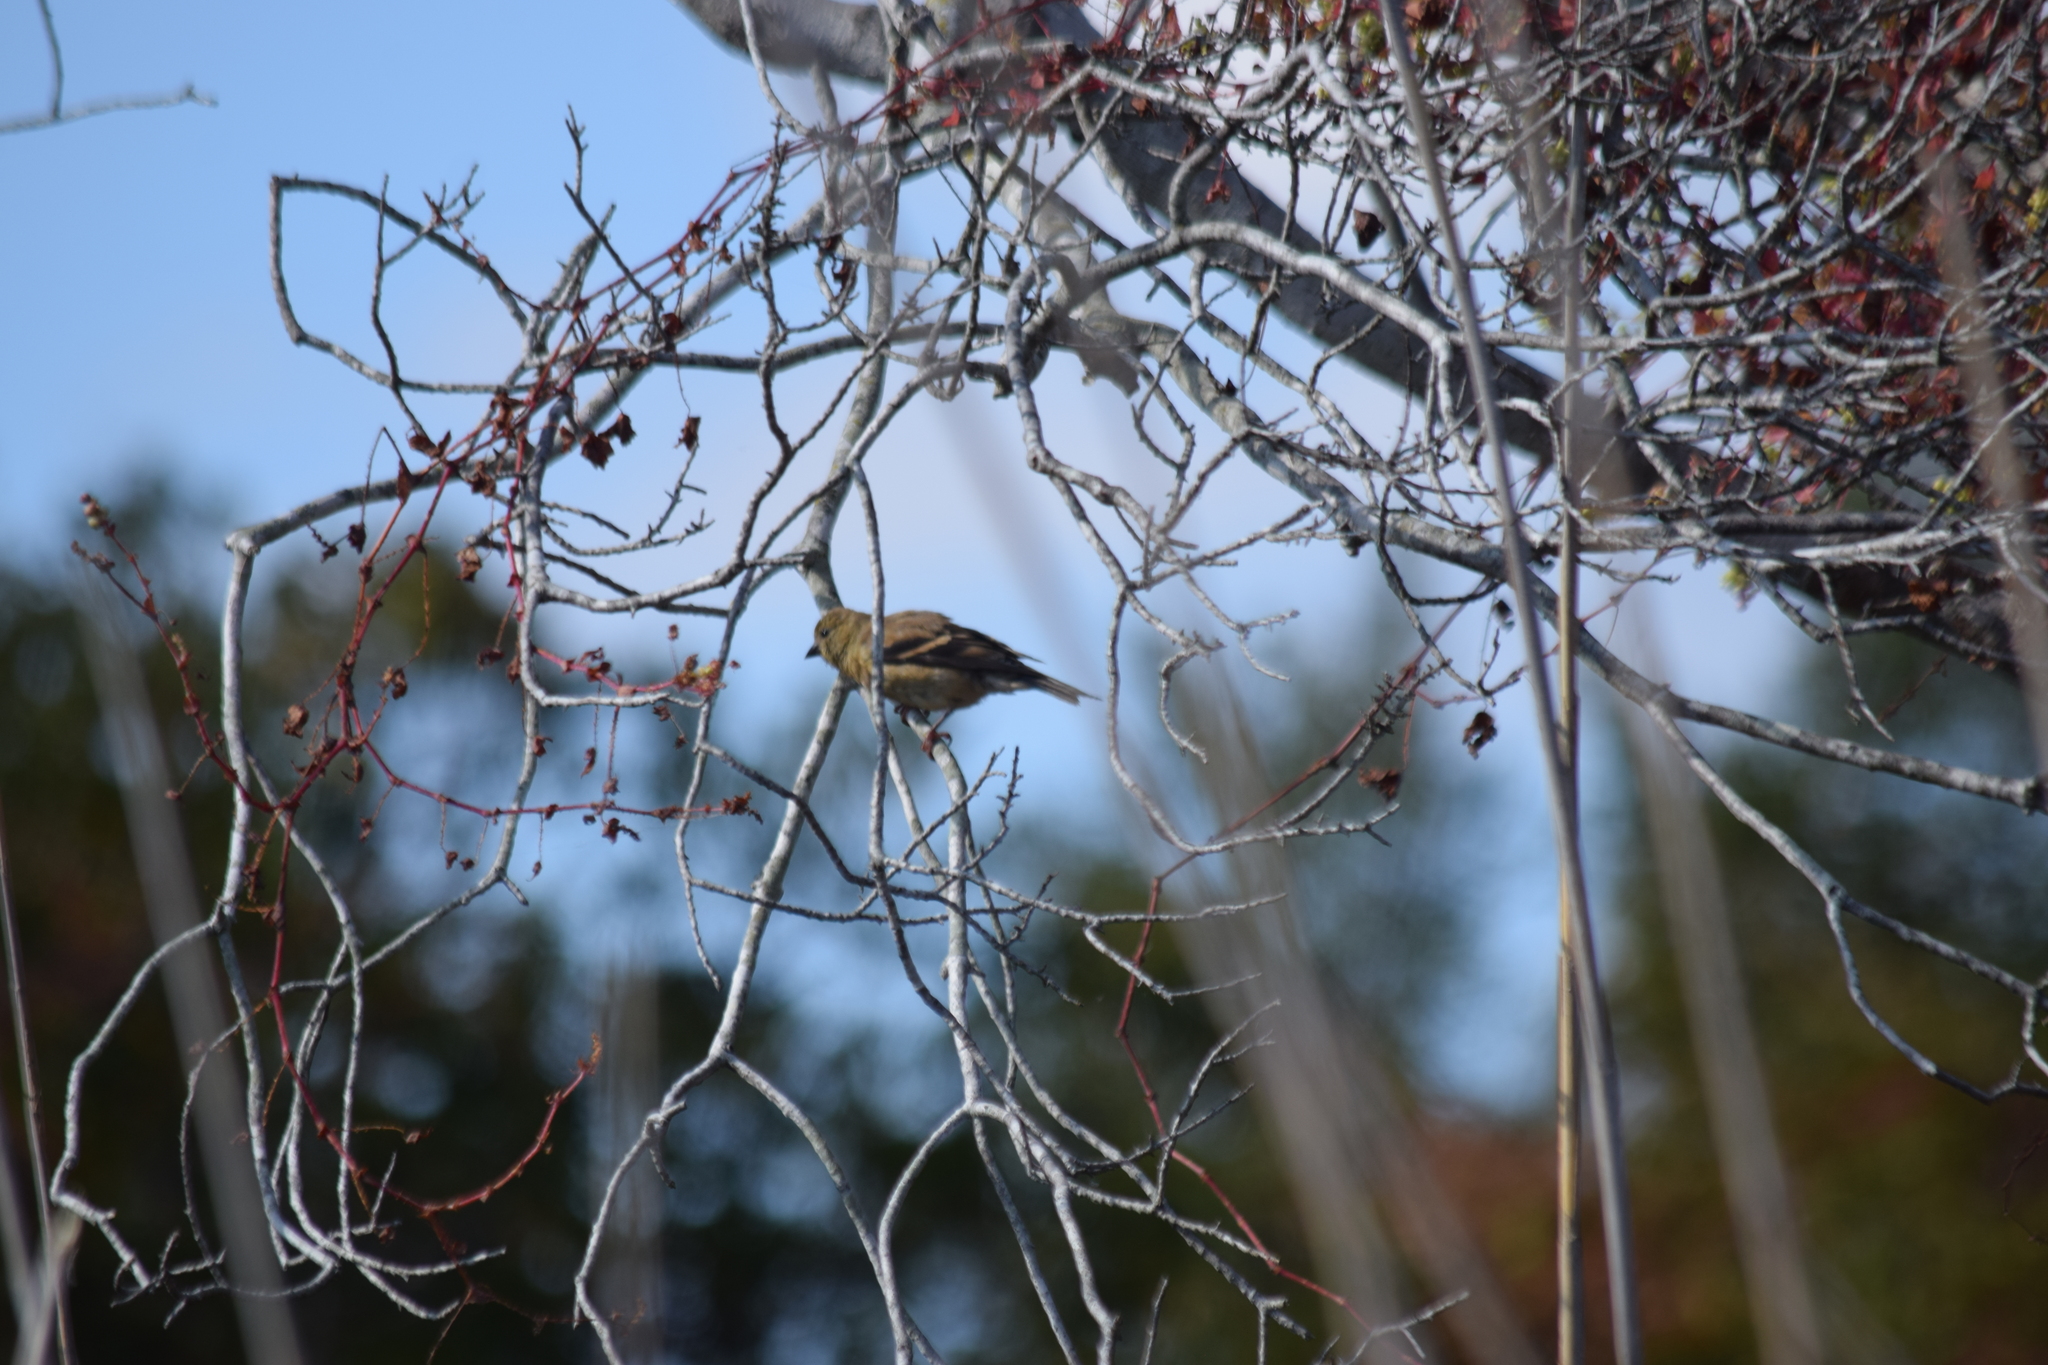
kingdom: Animalia
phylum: Chordata
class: Aves
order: Passeriformes
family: Fringillidae
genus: Spinus
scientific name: Spinus tristis
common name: American goldfinch
